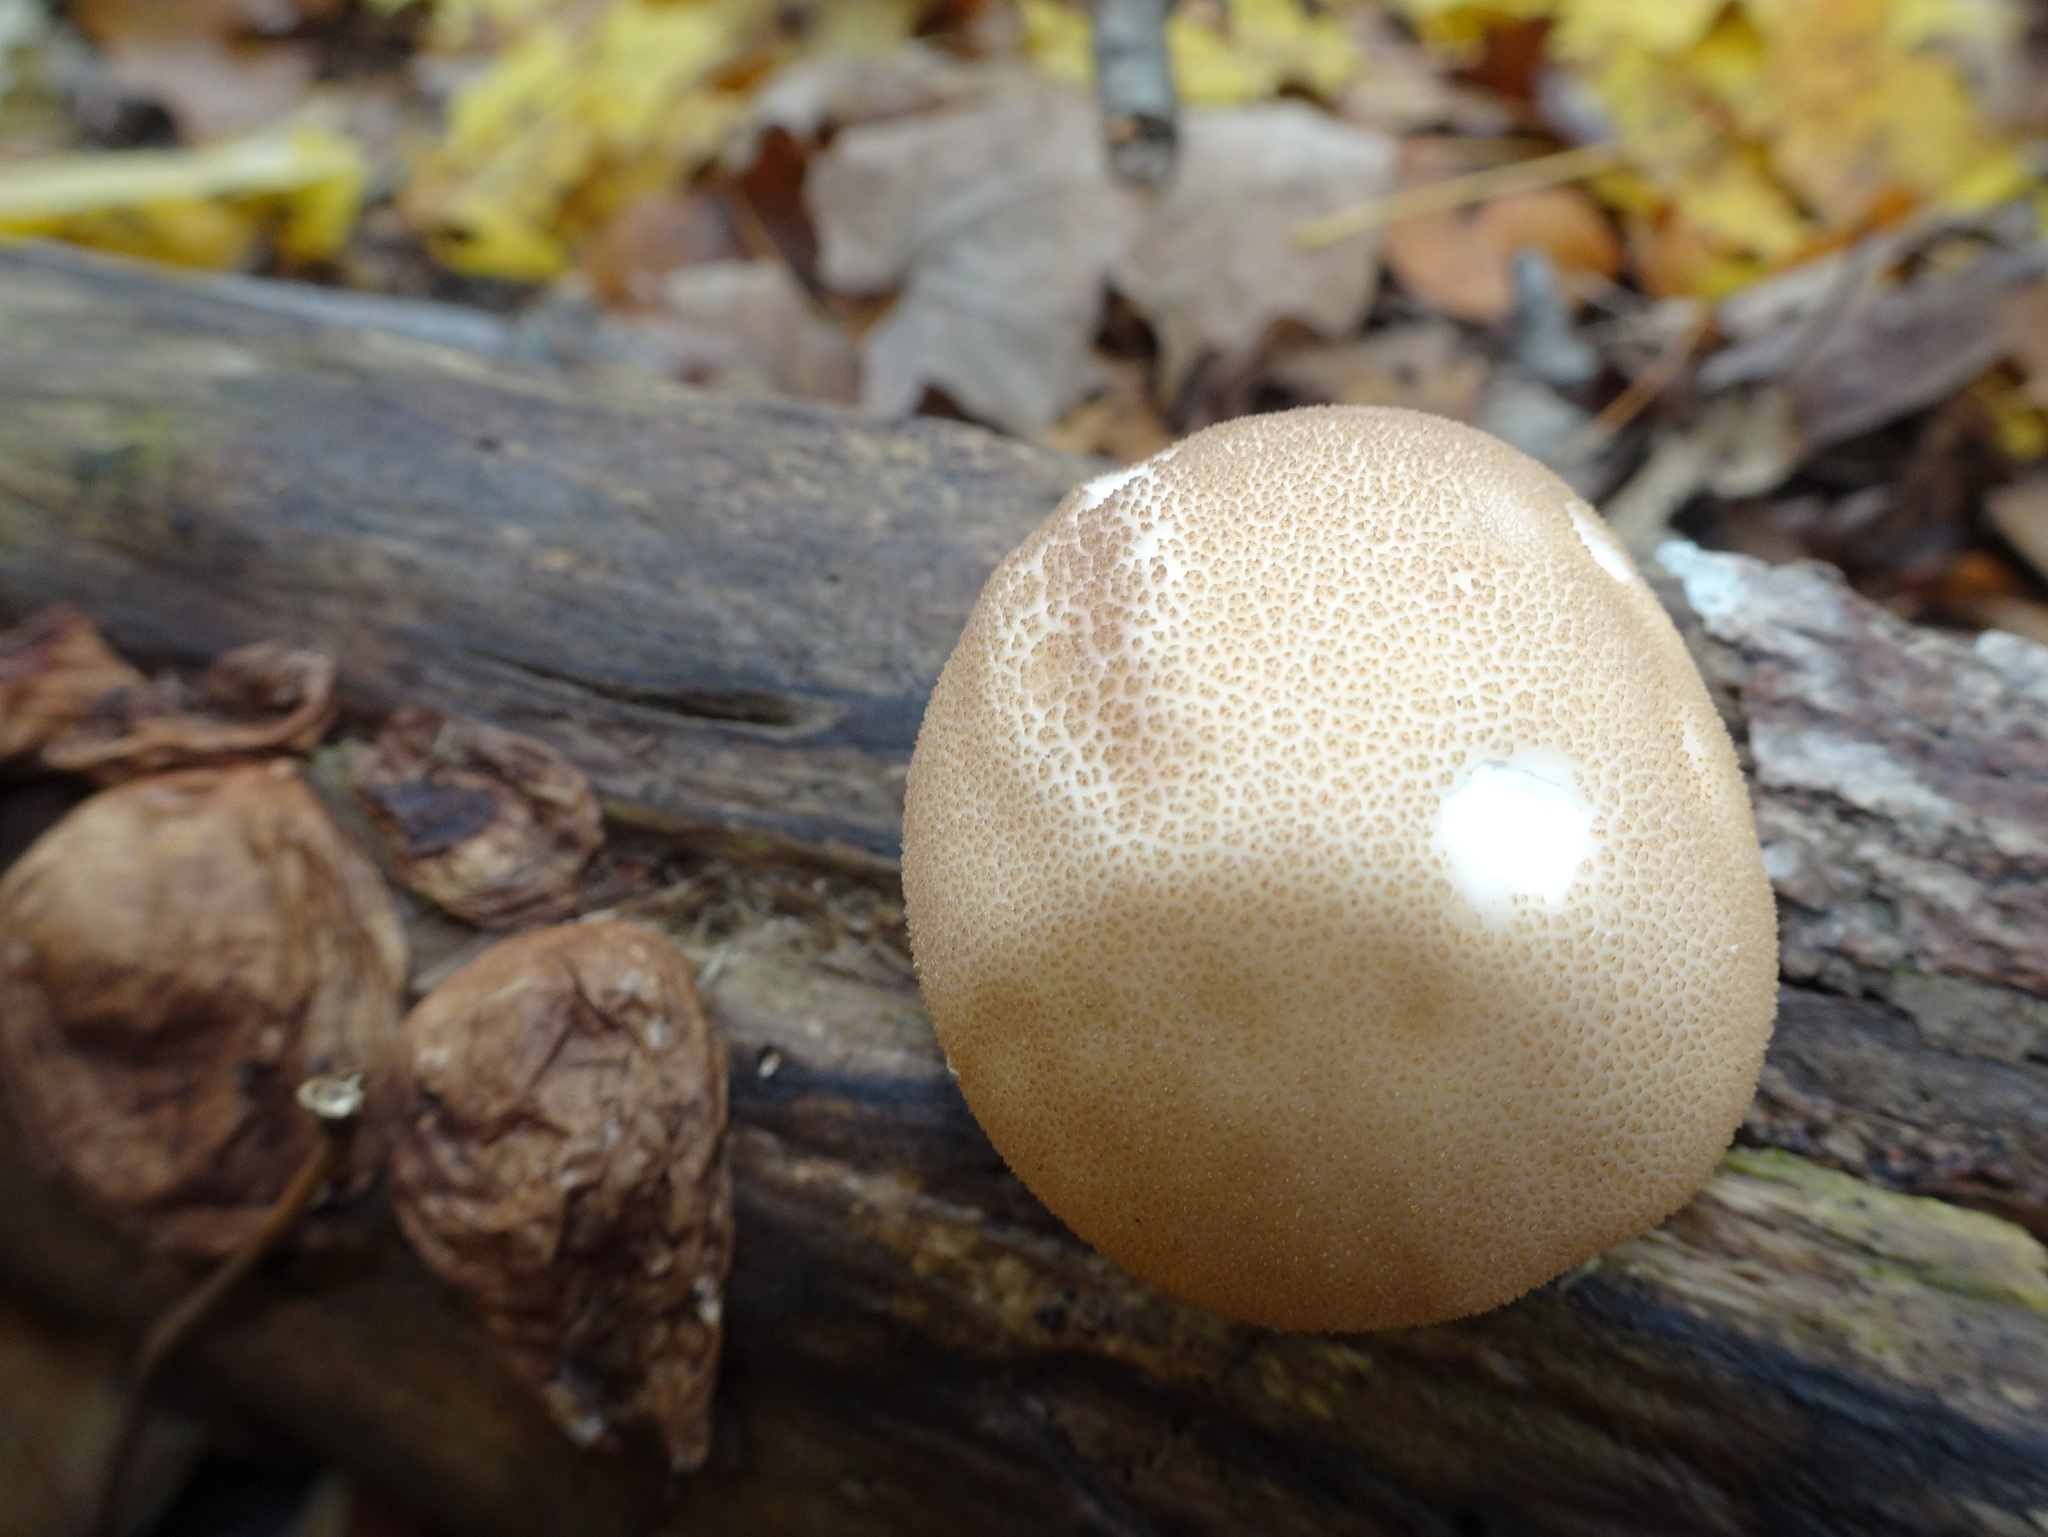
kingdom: Fungi
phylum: Basidiomycota
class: Agaricomycetes
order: Agaricales
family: Lycoperdaceae
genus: Apioperdon
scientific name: Apioperdon pyriforme
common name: Pear-shaped puffball
